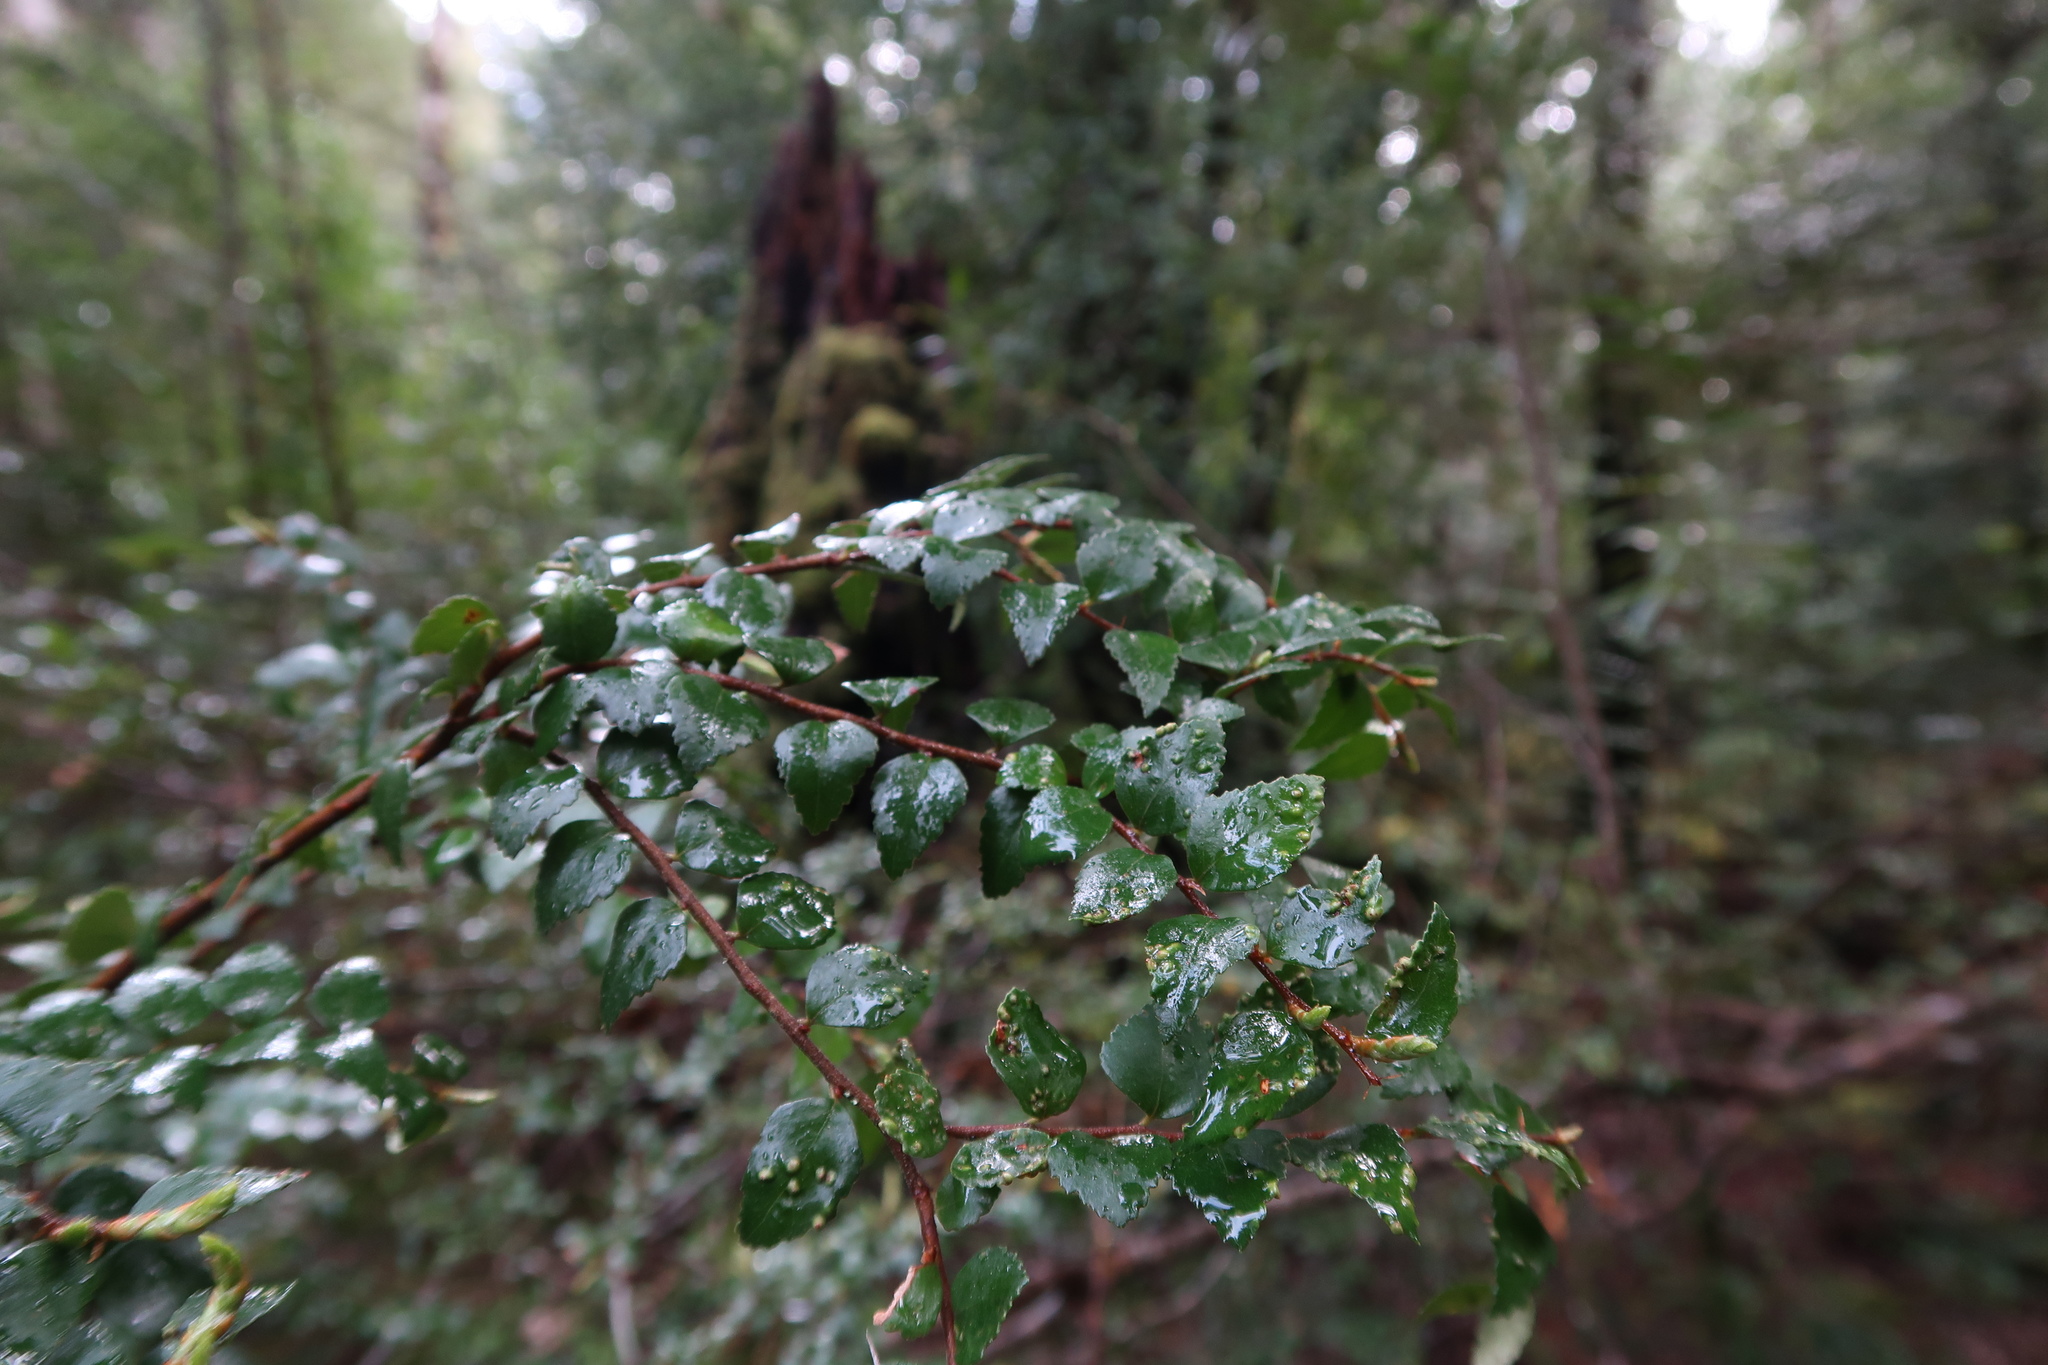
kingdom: Plantae
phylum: Tracheophyta
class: Magnoliopsida
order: Fagales
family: Nothofagaceae
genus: Nothofagus
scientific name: Nothofagus cunninghamii
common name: Myrtle beech
